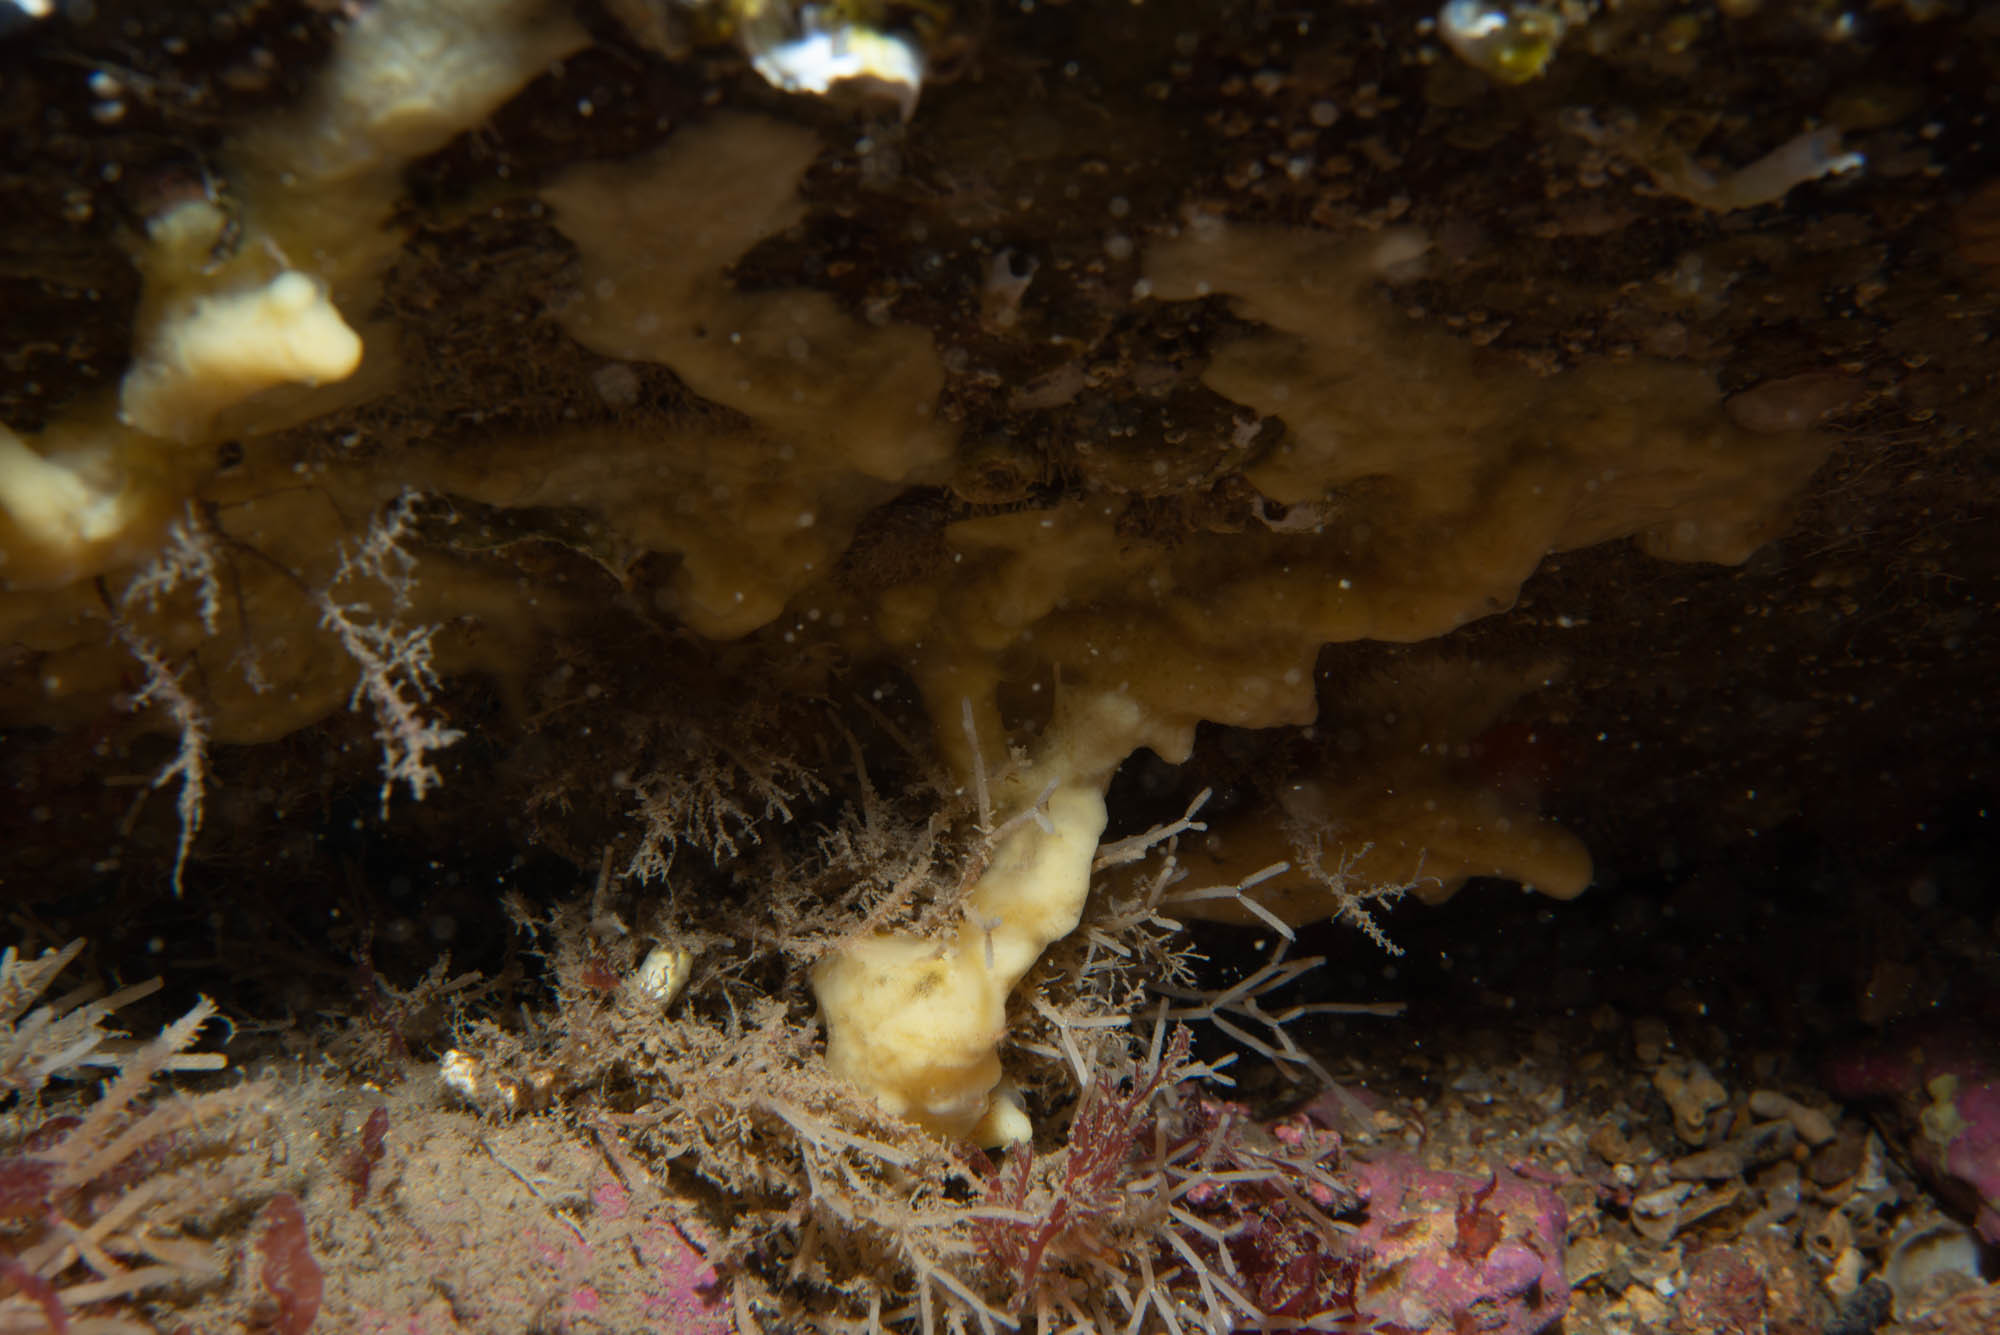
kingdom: Animalia
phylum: Porifera
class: Demospongiae
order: Poecilosclerida
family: Acarnidae
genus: Iophon
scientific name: Iophon nigricans
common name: Yellow-fingered horny sponge
